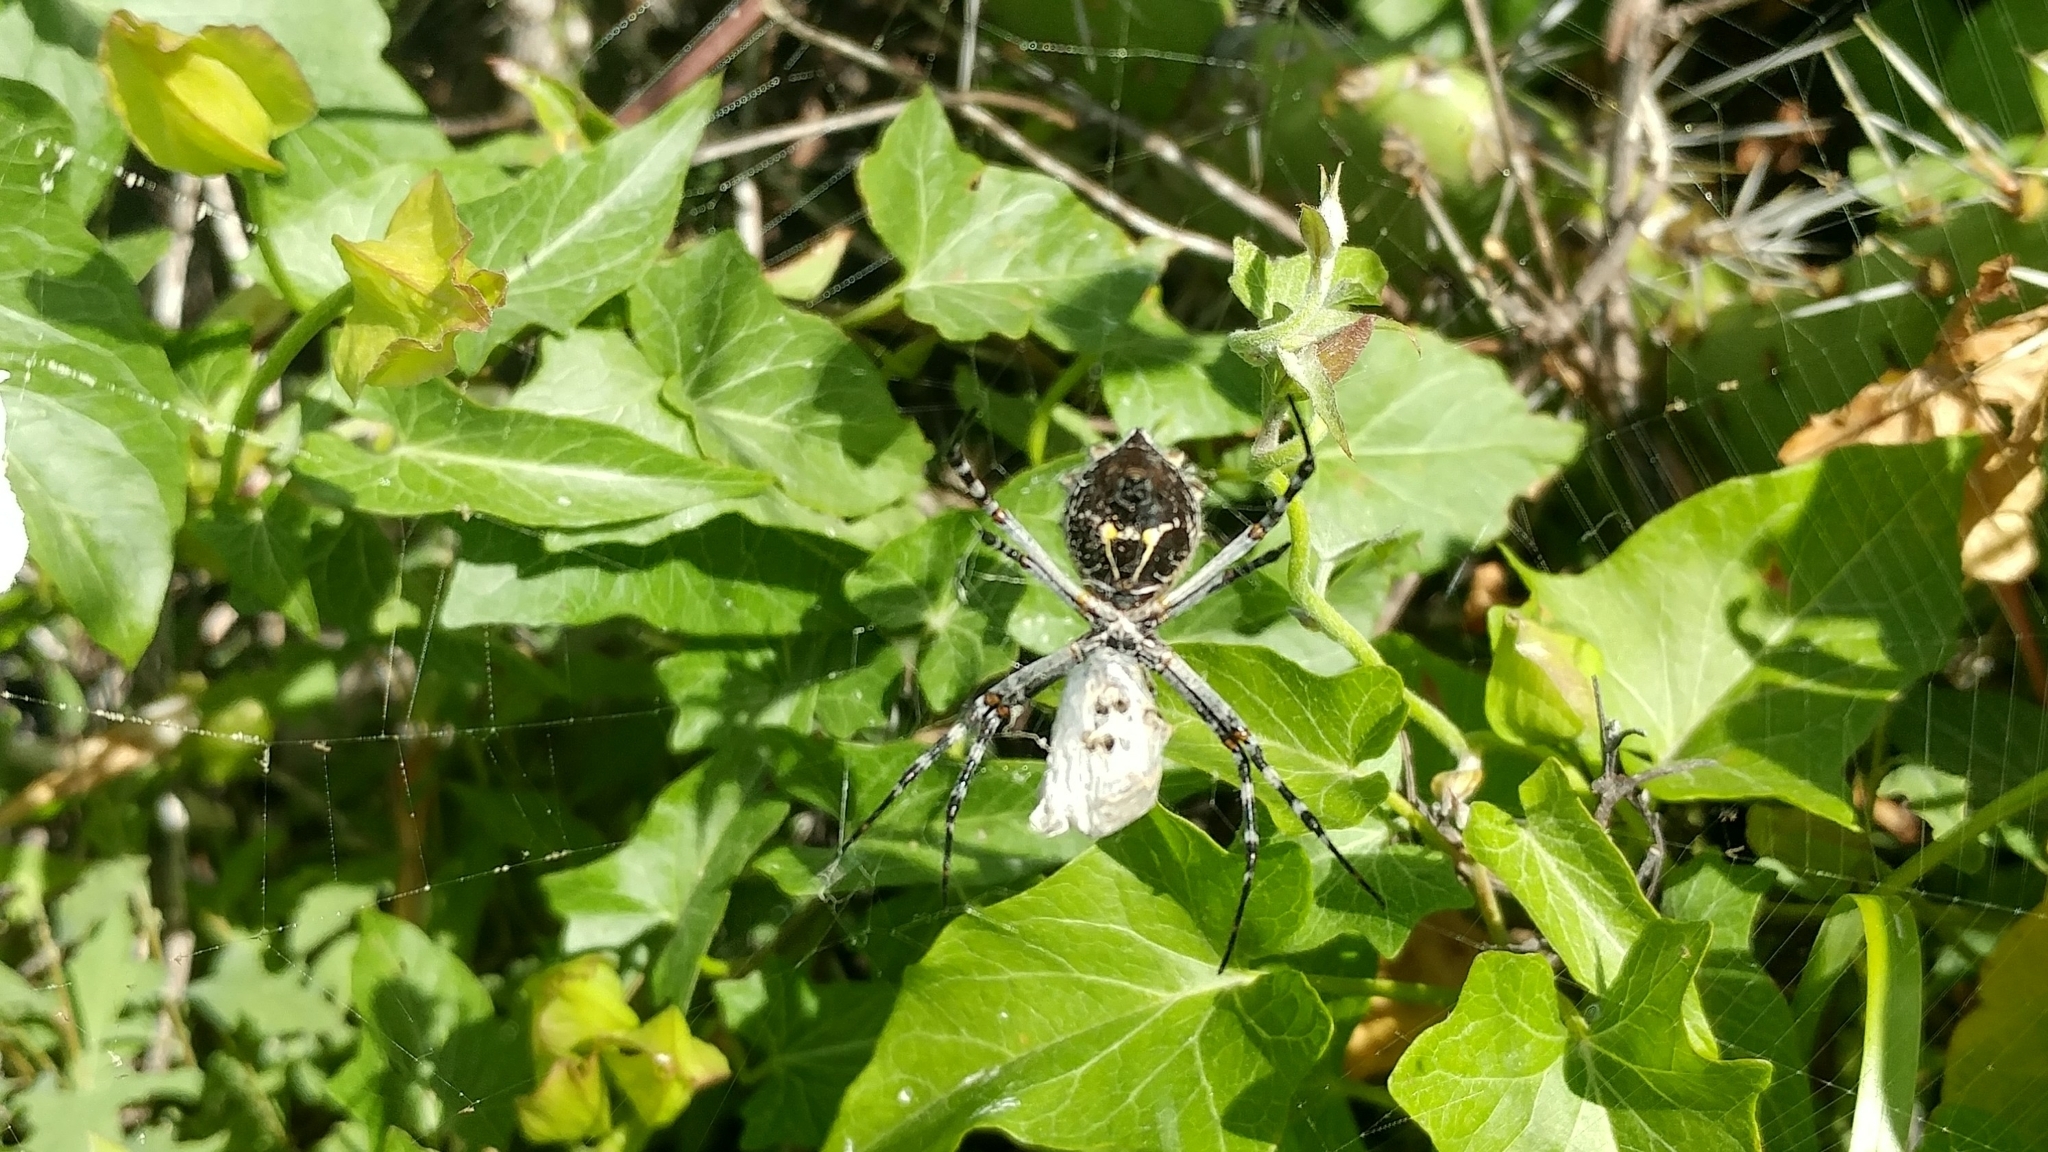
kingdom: Animalia
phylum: Arthropoda
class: Arachnida
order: Araneae
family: Araneidae
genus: Argiope
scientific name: Argiope argentata
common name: Orb weavers
